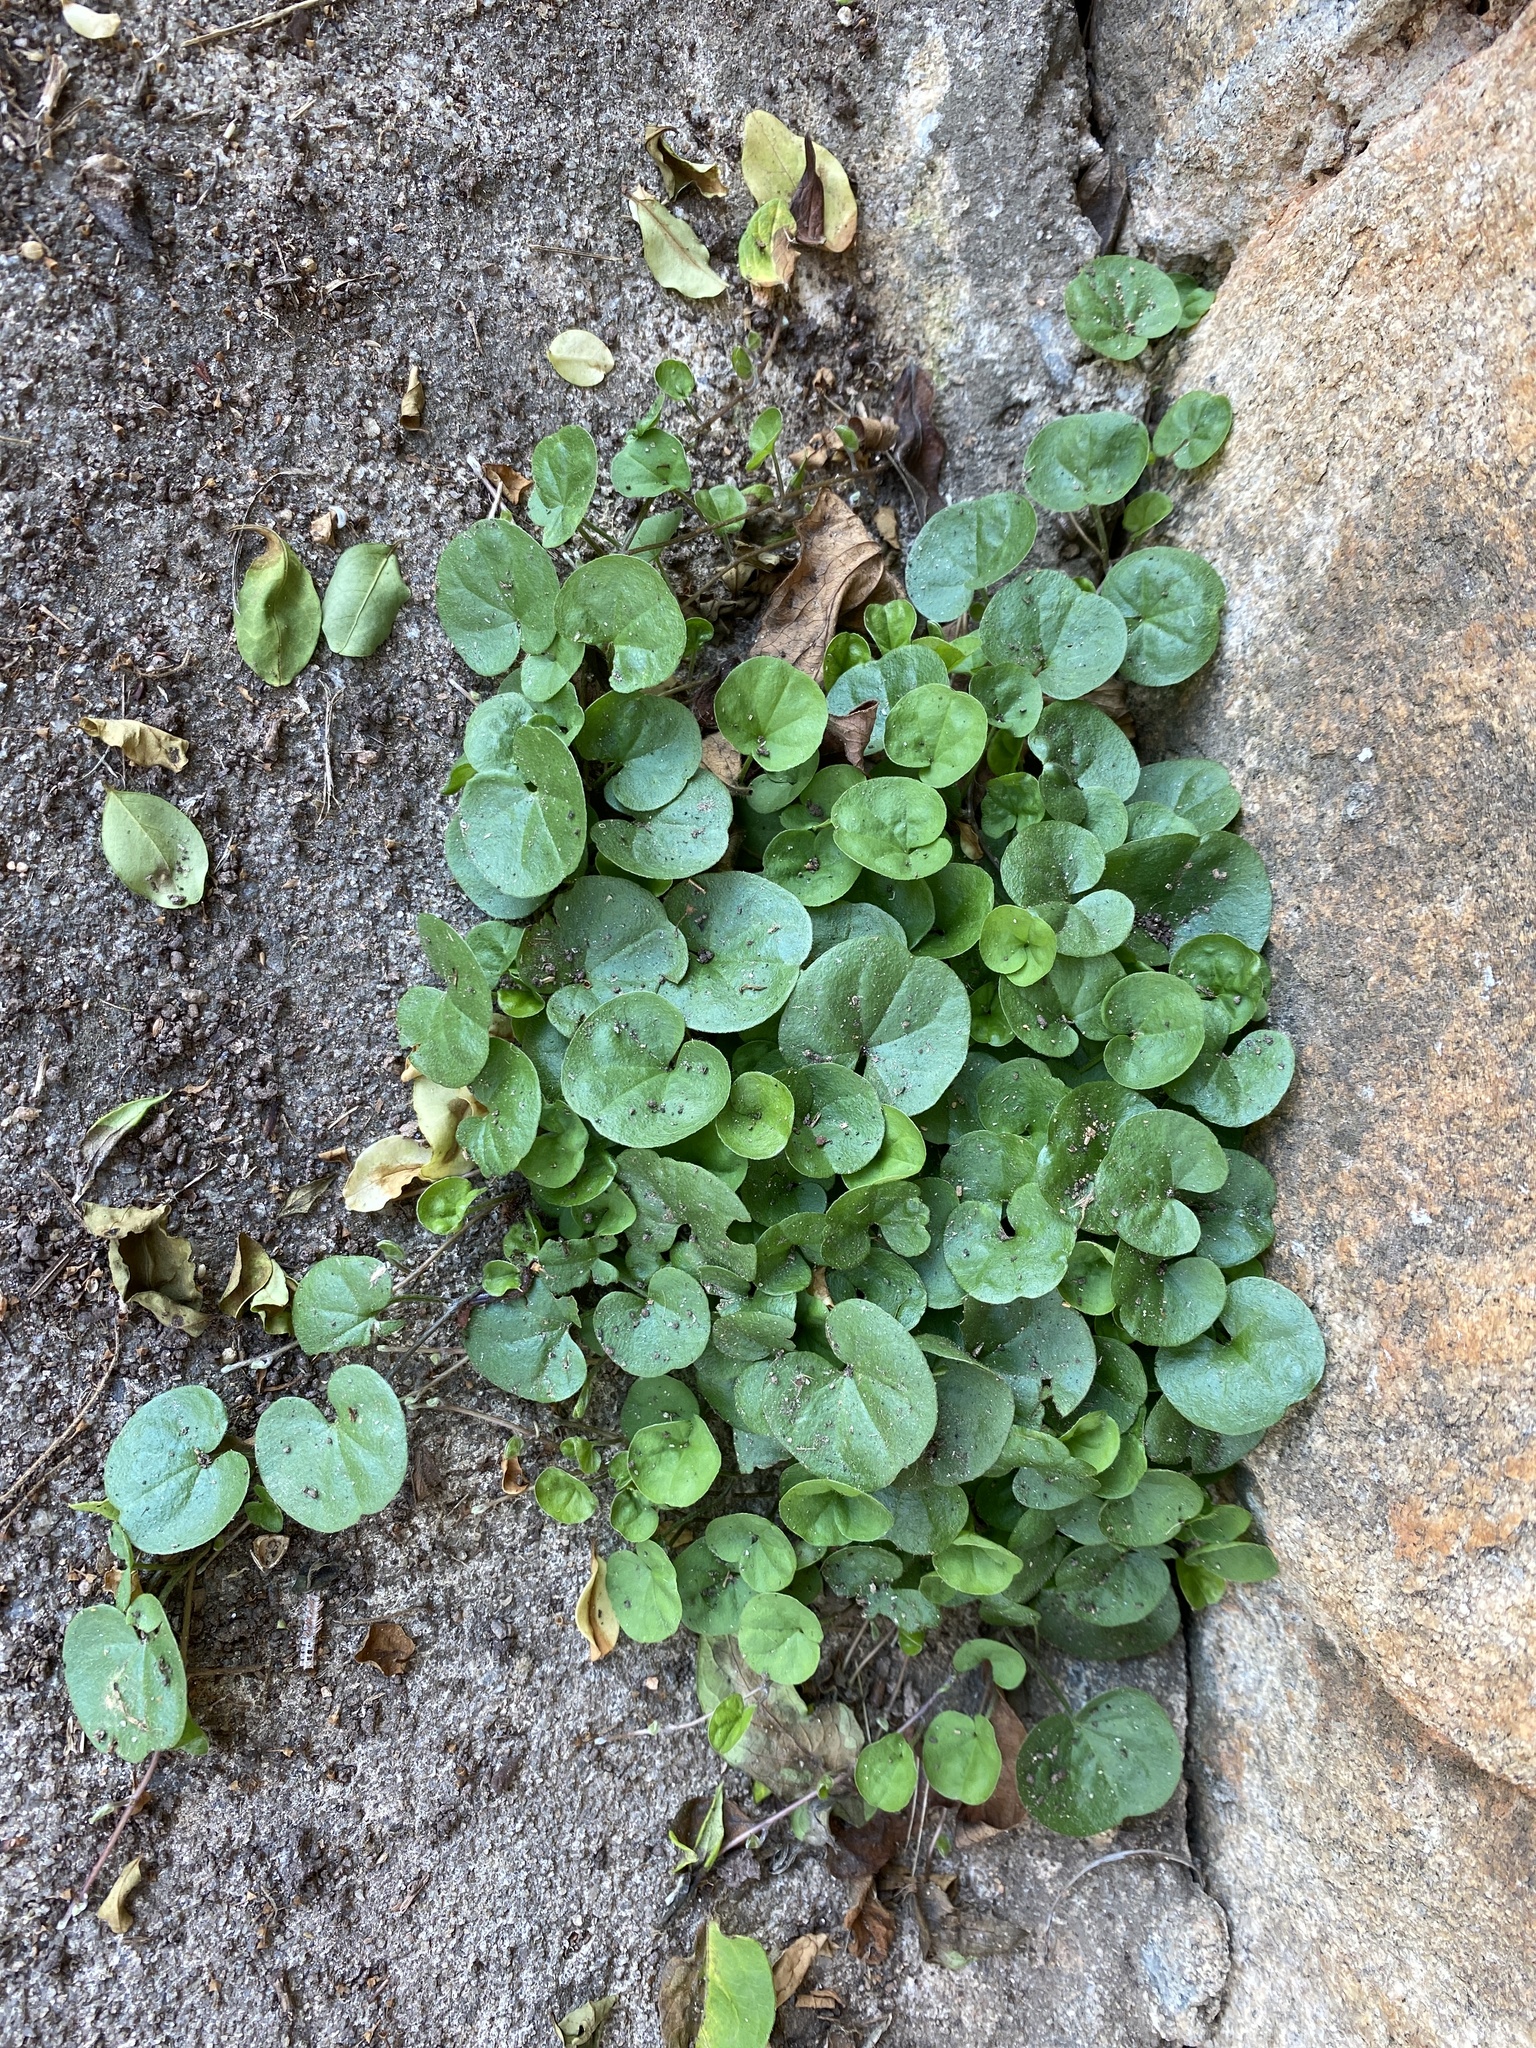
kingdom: Plantae
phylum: Tracheophyta
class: Magnoliopsida
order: Solanales
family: Convolvulaceae
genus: Dichondra
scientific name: Dichondra carolinensis
